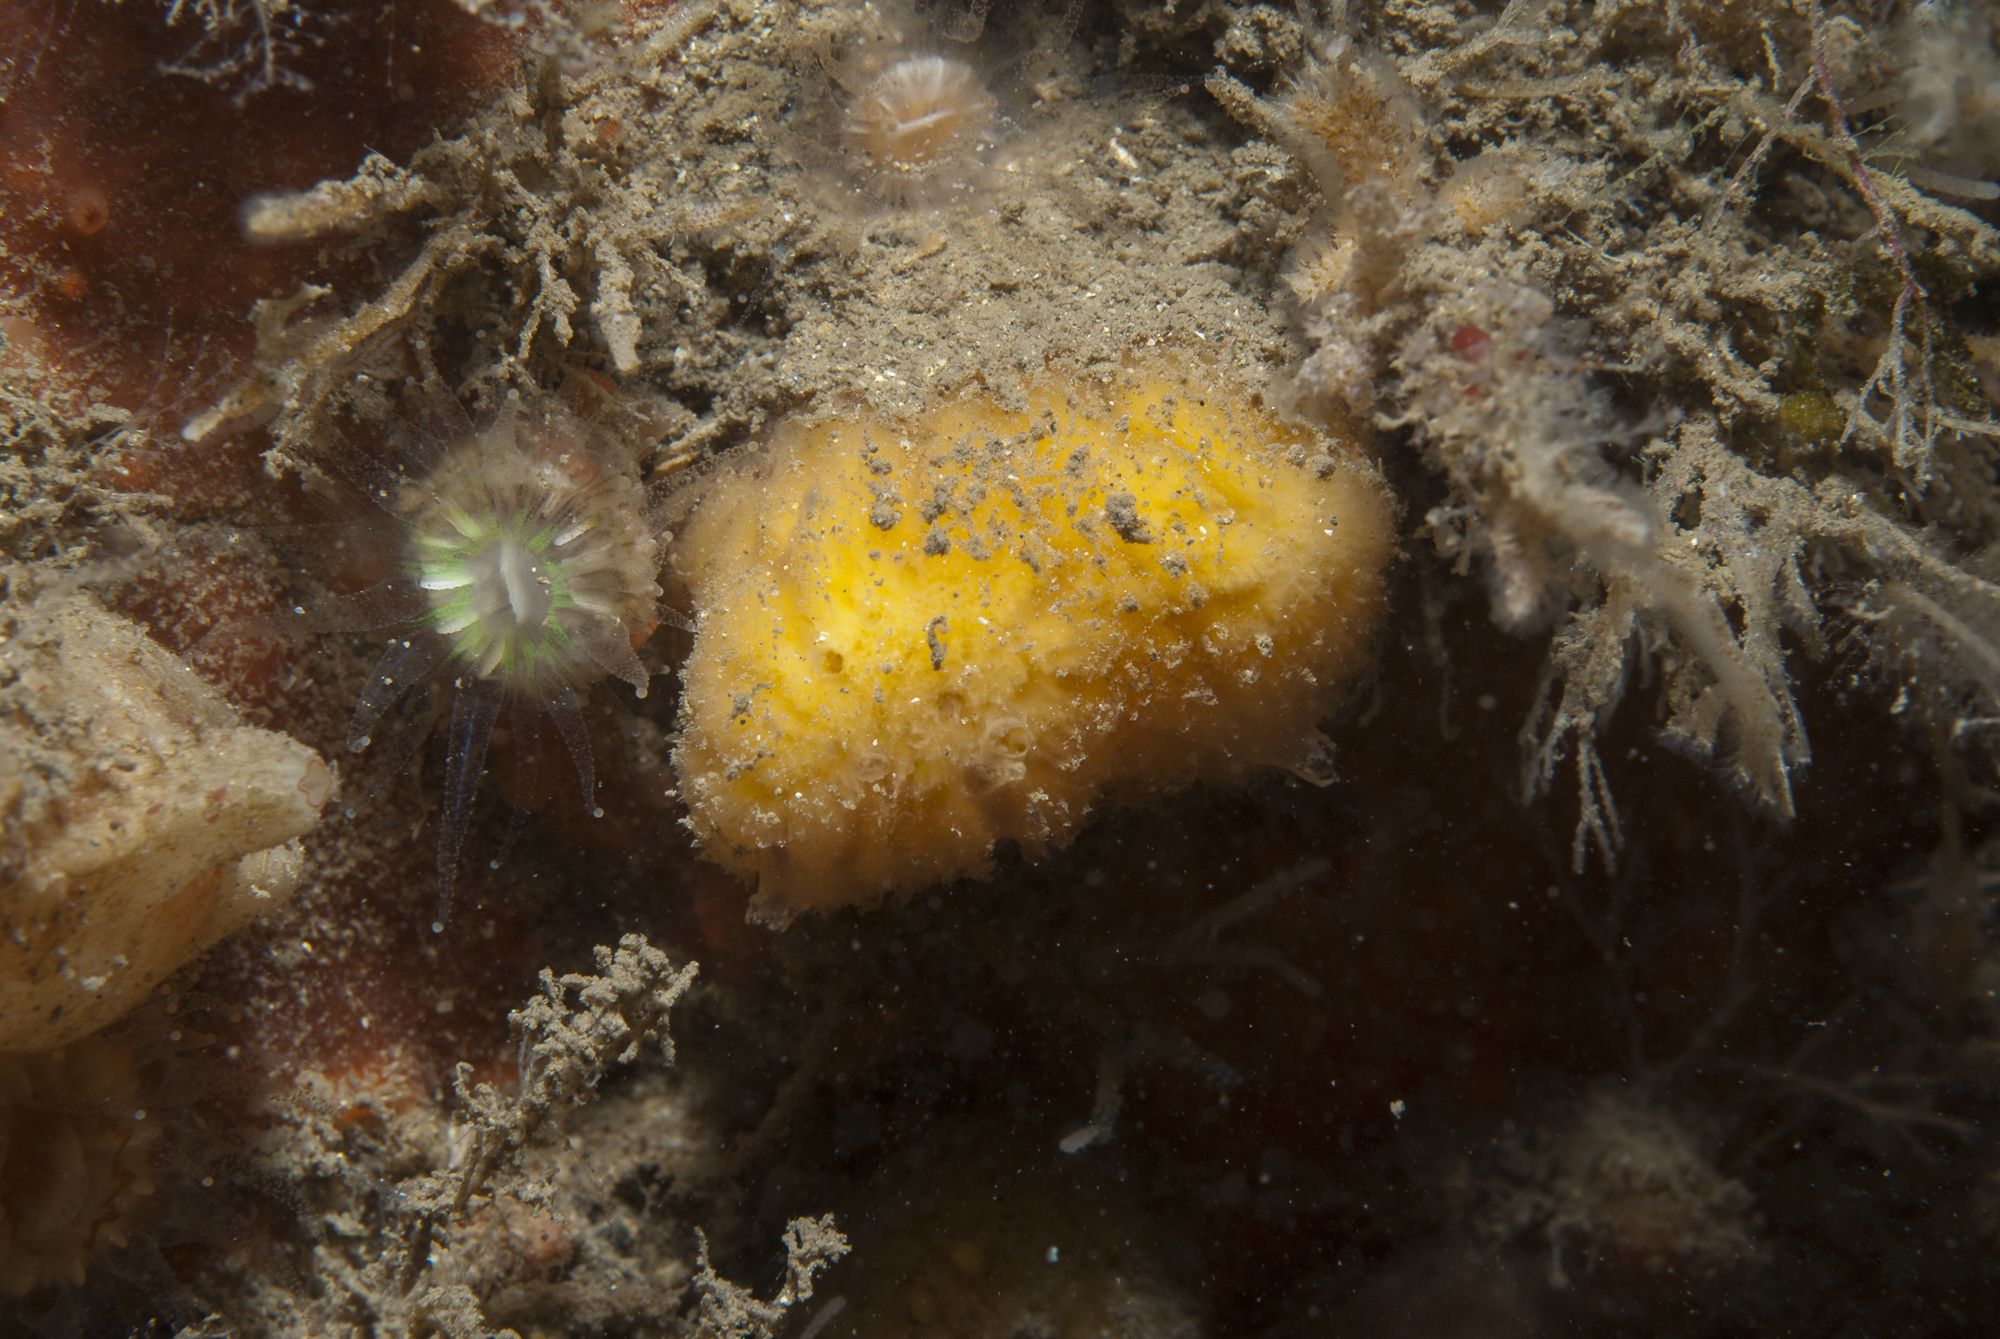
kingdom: Animalia
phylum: Porifera
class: Demospongiae
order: Axinellida
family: Axinellidae
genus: Axinella
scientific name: Axinella parva
